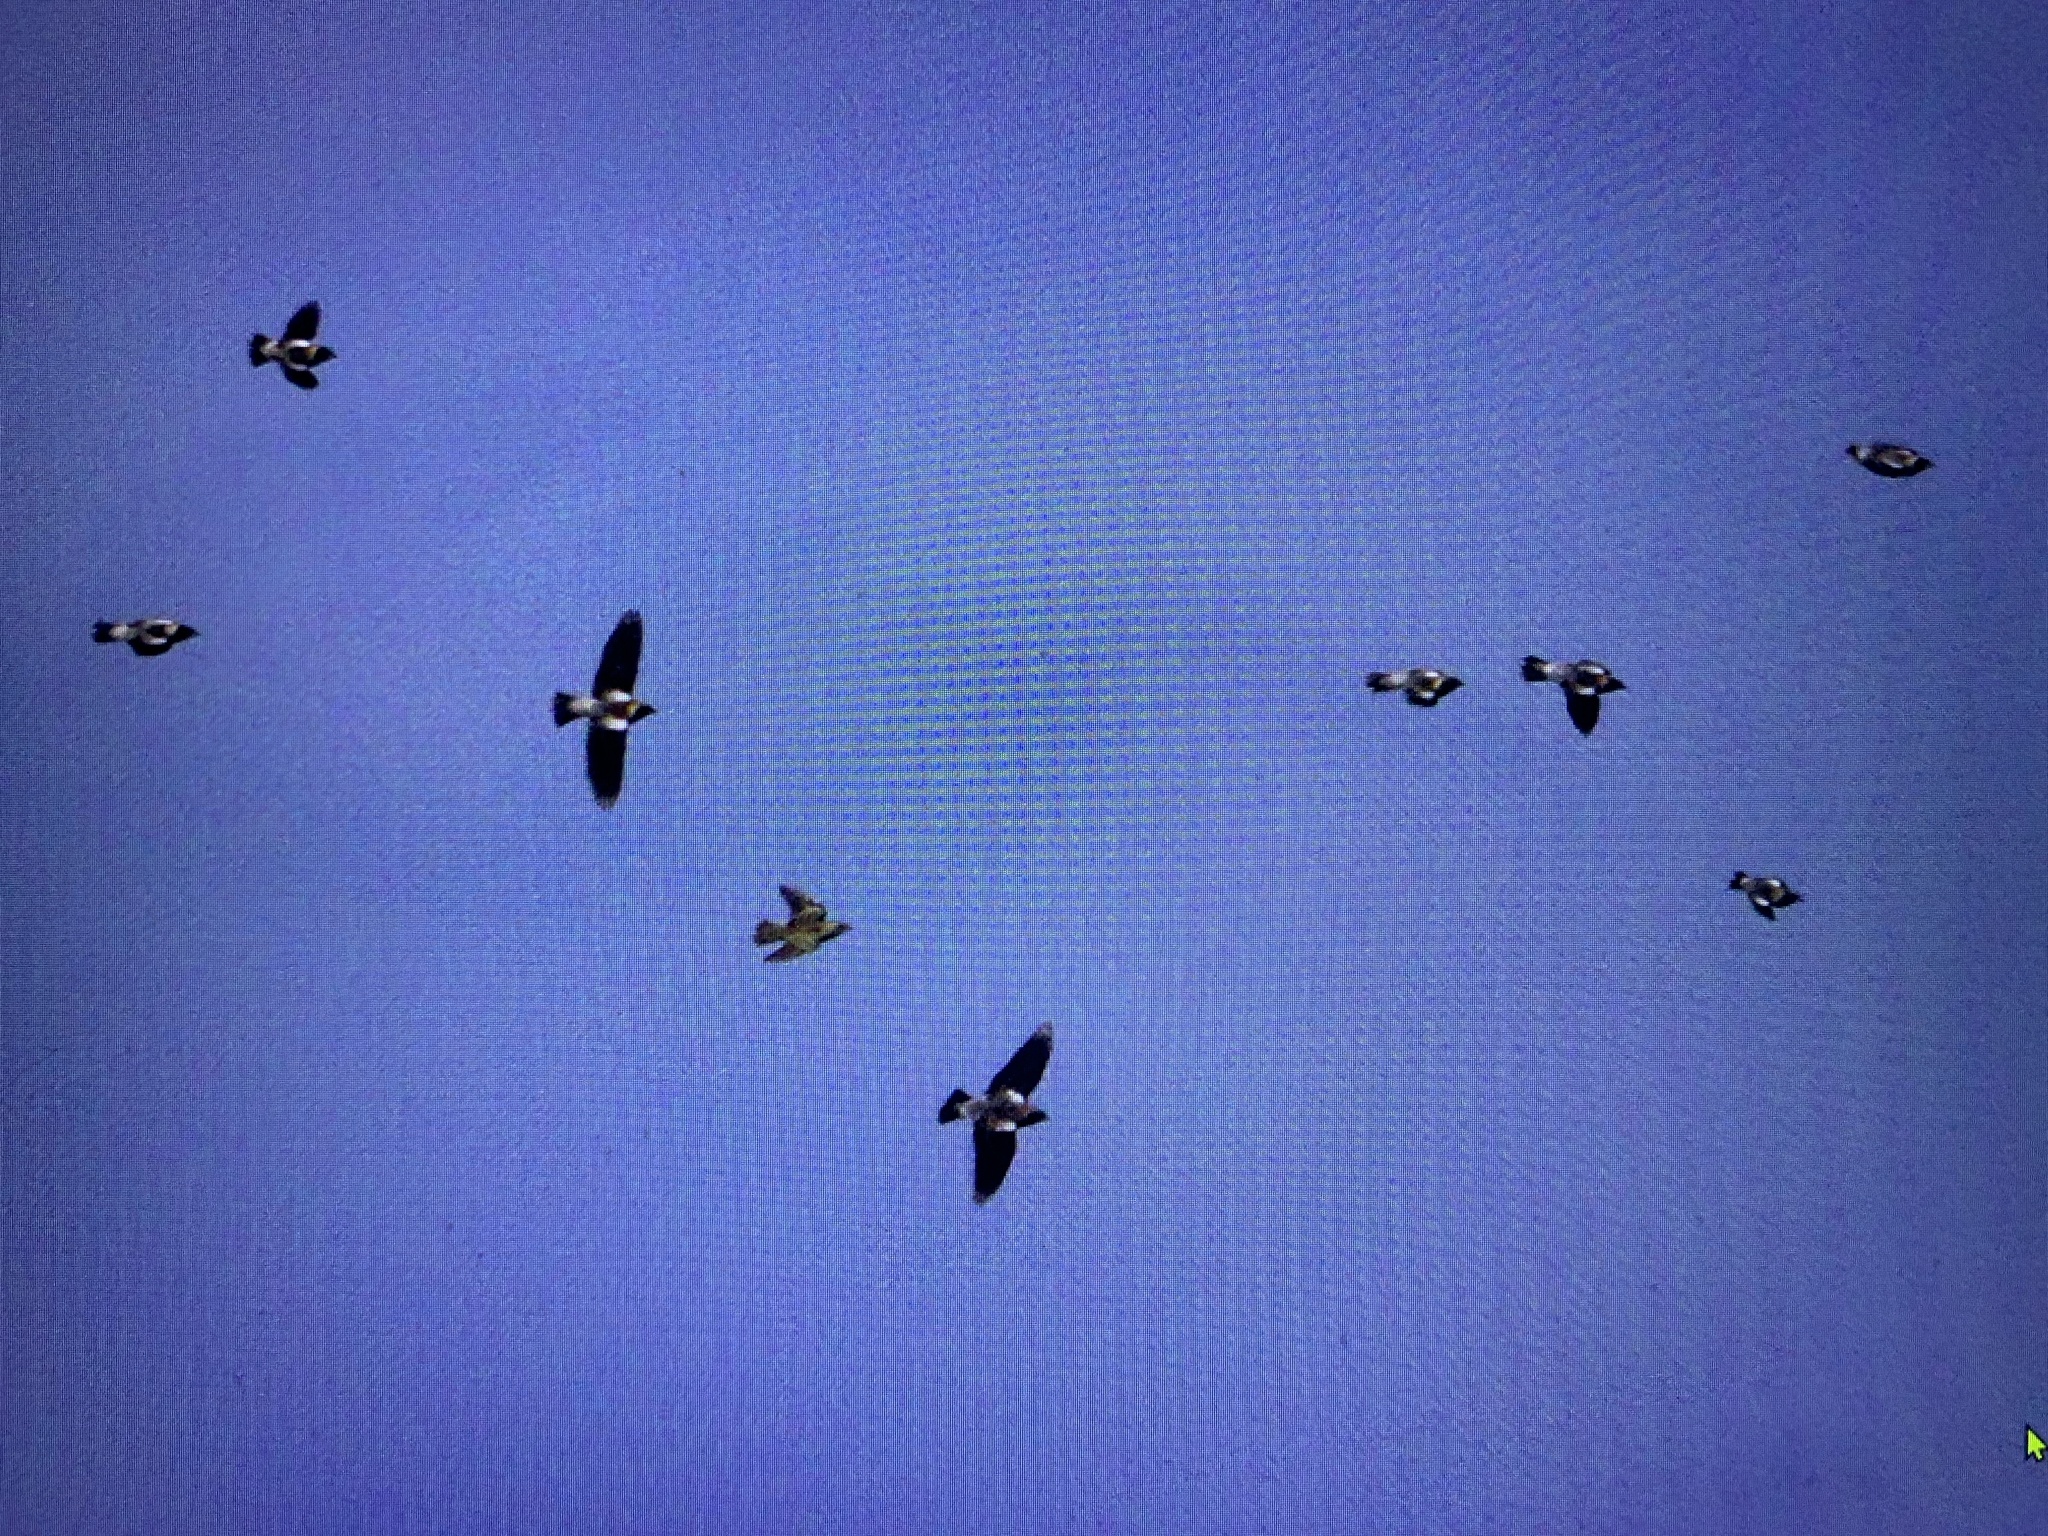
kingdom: Animalia
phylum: Chordata
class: Aves
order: Passeriformes
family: Icteridae
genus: Dolichonyx
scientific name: Dolichonyx oryzivorus
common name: Bobolink
